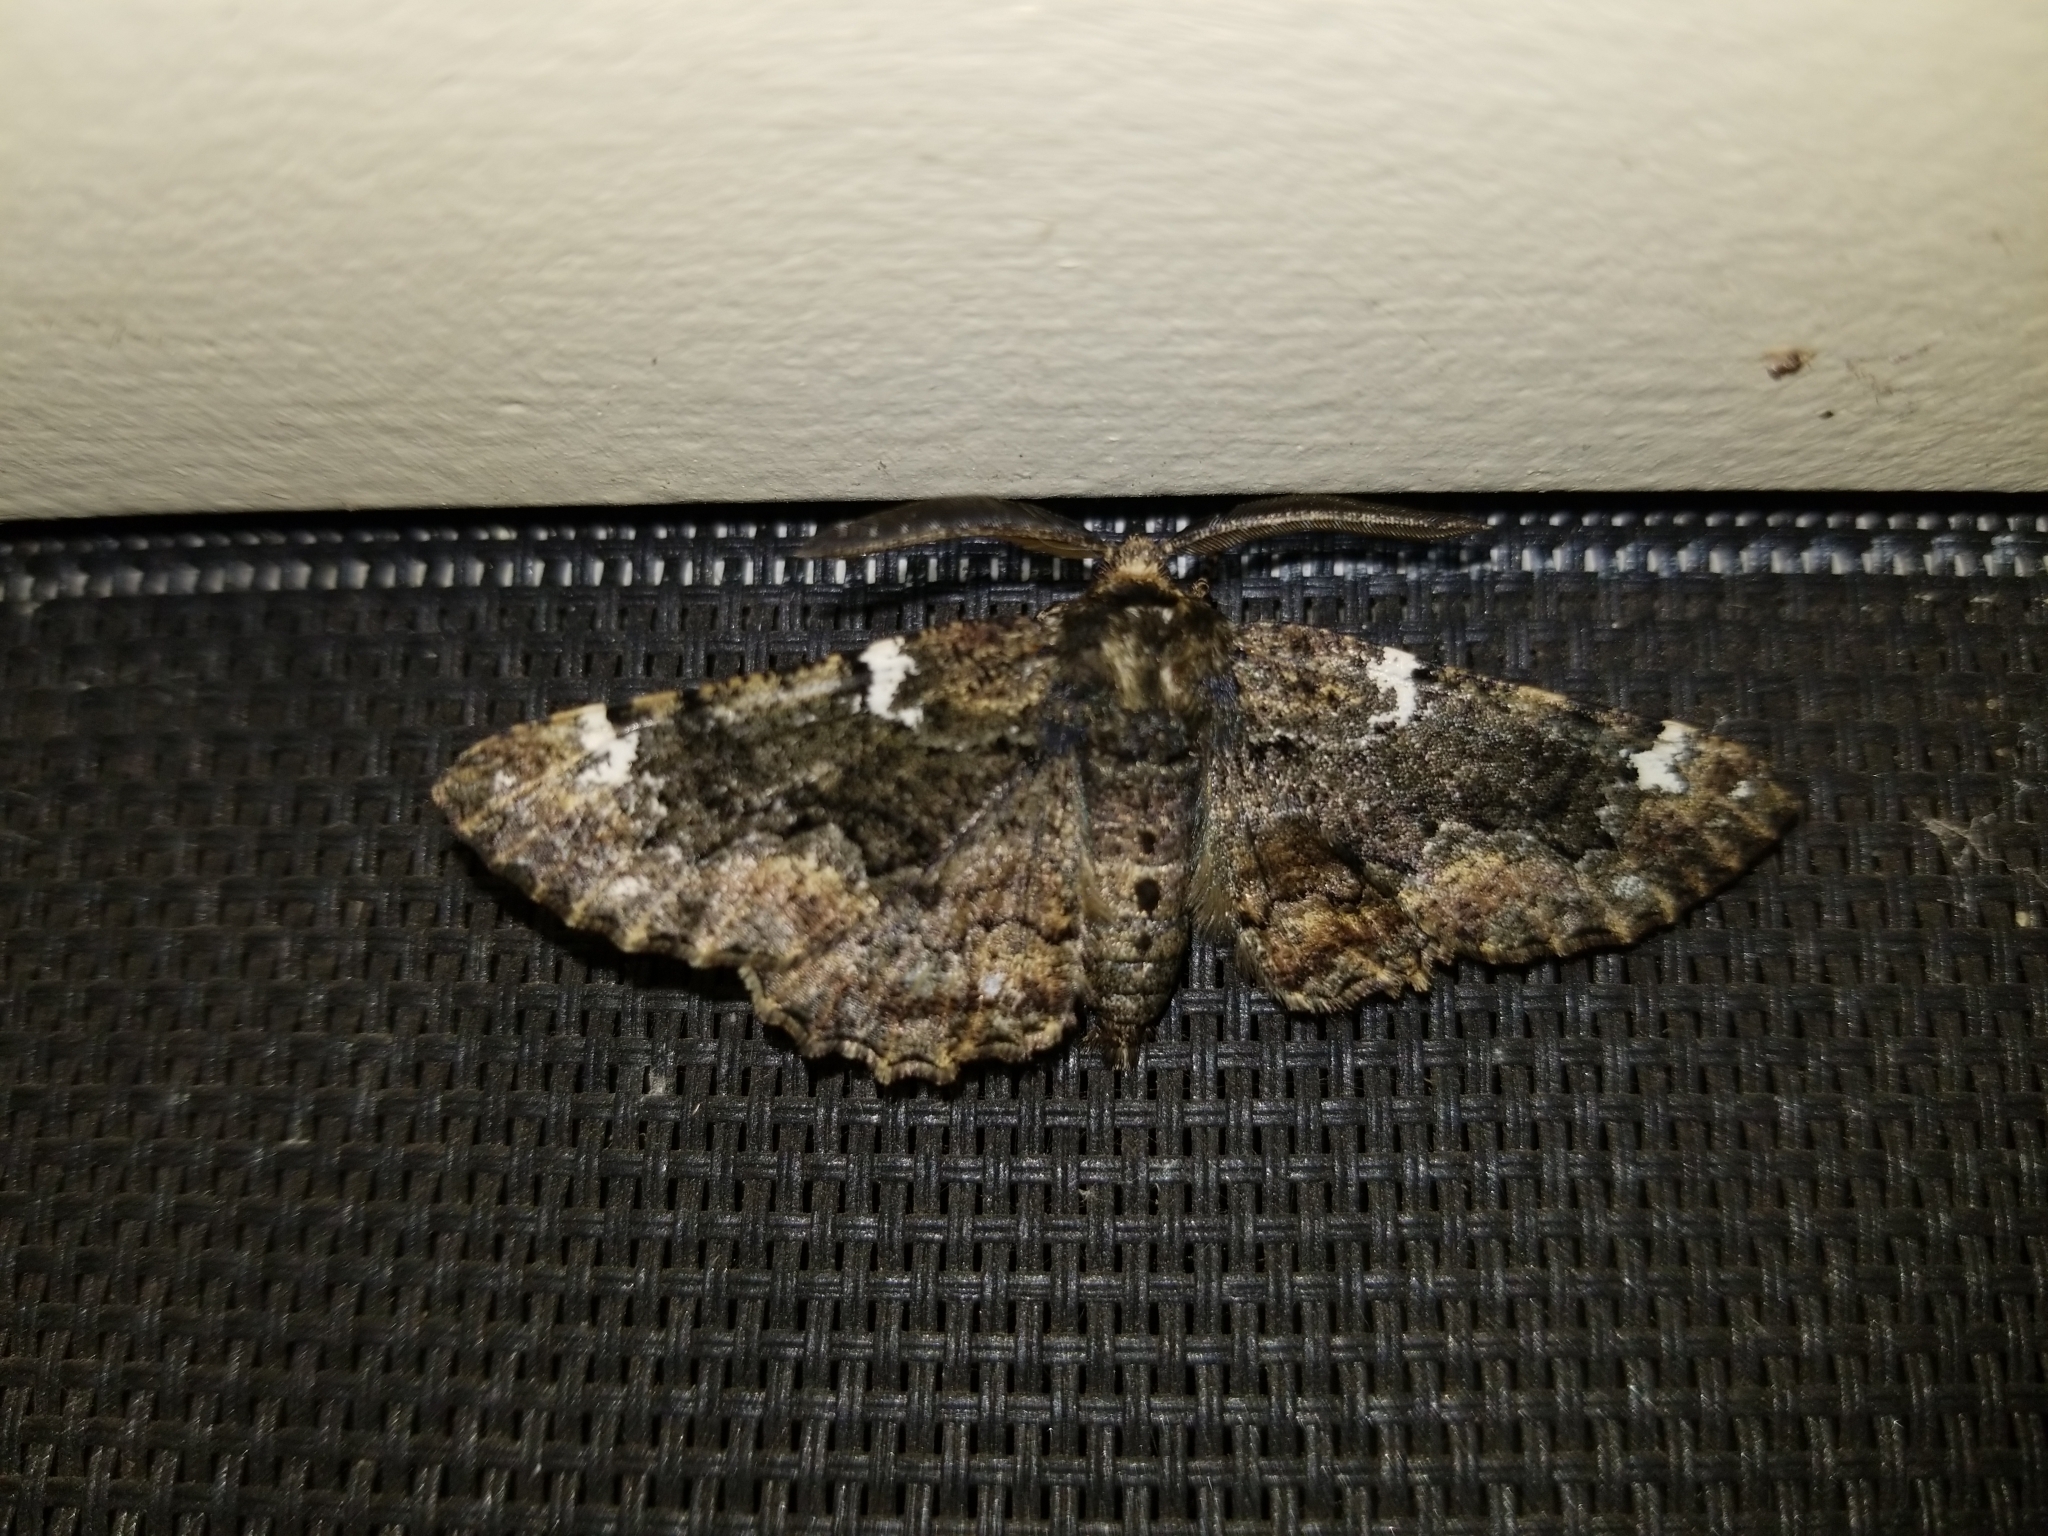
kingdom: Animalia
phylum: Arthropoda
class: Insecta
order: Lepidoptera
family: Geometridae
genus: Phaeoura
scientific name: Phaeoura quernaria
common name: Oak beauty
